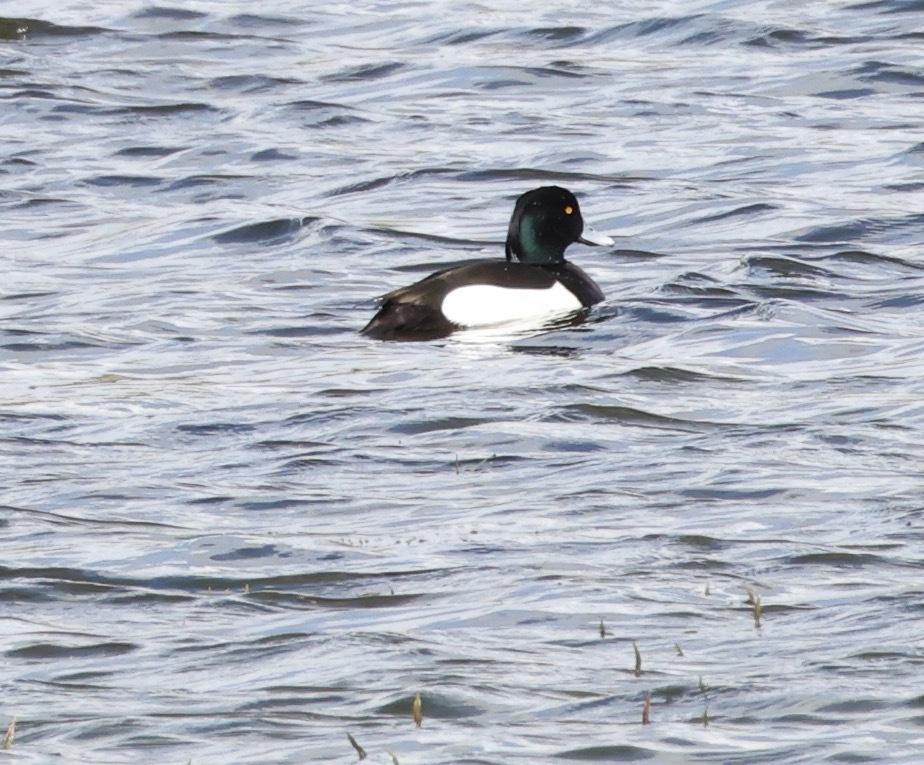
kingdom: Animalia
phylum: Chordata
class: Aves
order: Anseriformes
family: Anatidae
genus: Aythya
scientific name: Aythya fuligula
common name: Tufted duck
